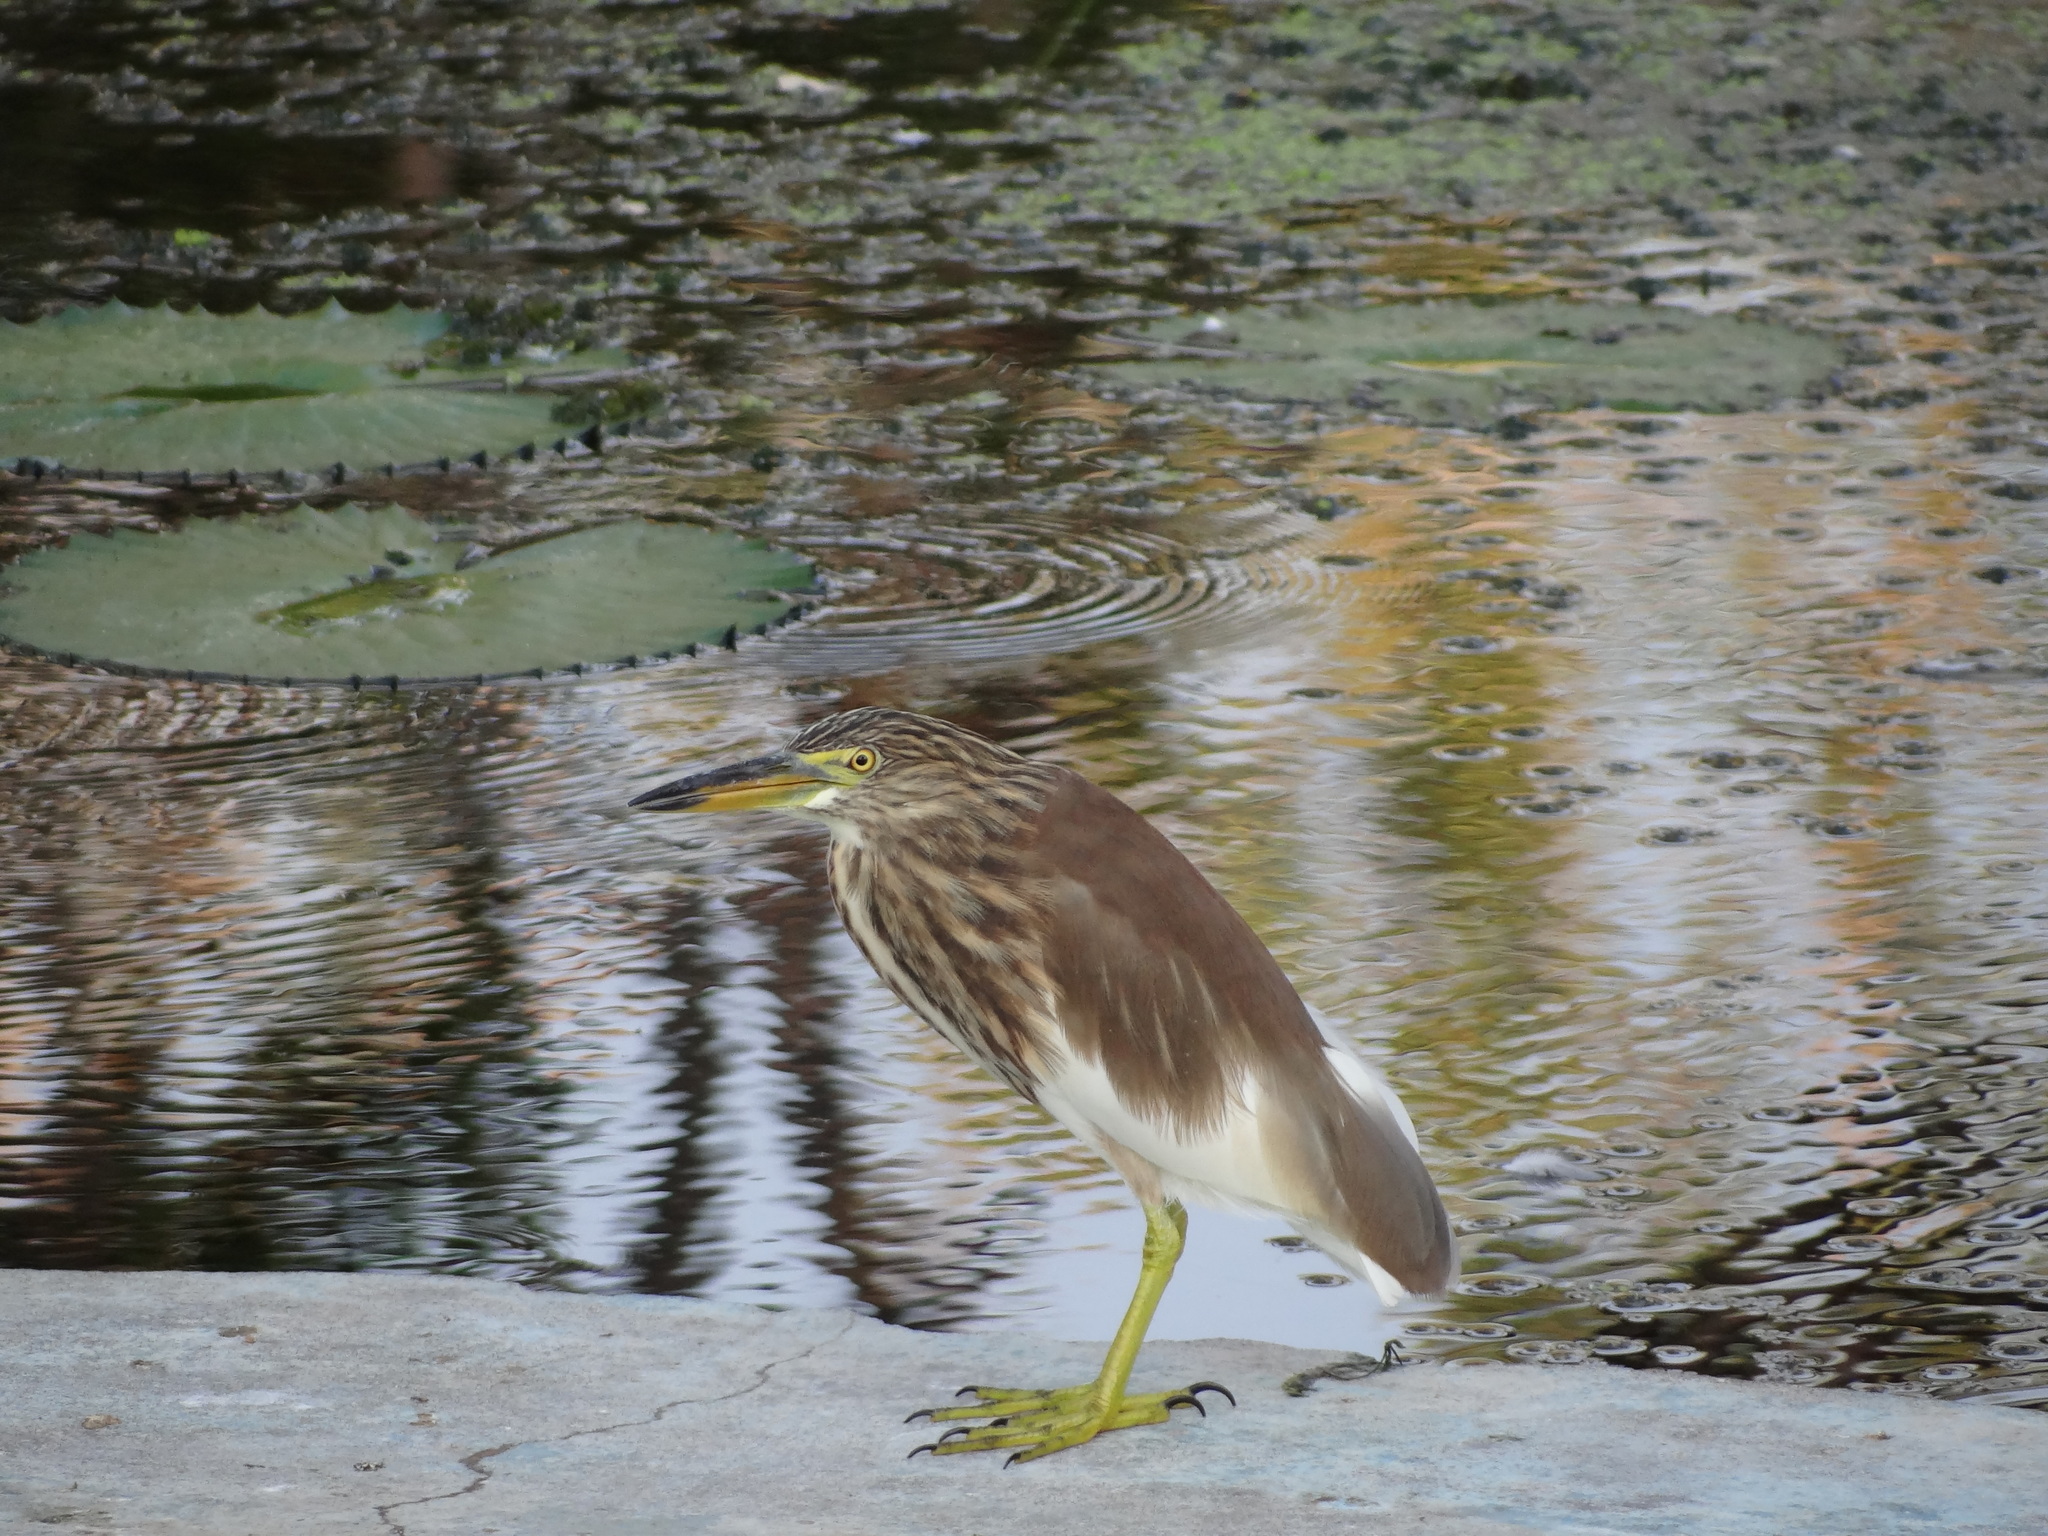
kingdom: Animalia
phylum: Chordata
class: Aves
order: Pelecaniformes
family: Ardeidae
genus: Ardeola
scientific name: Ardeola grayii
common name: Indian pond heron
